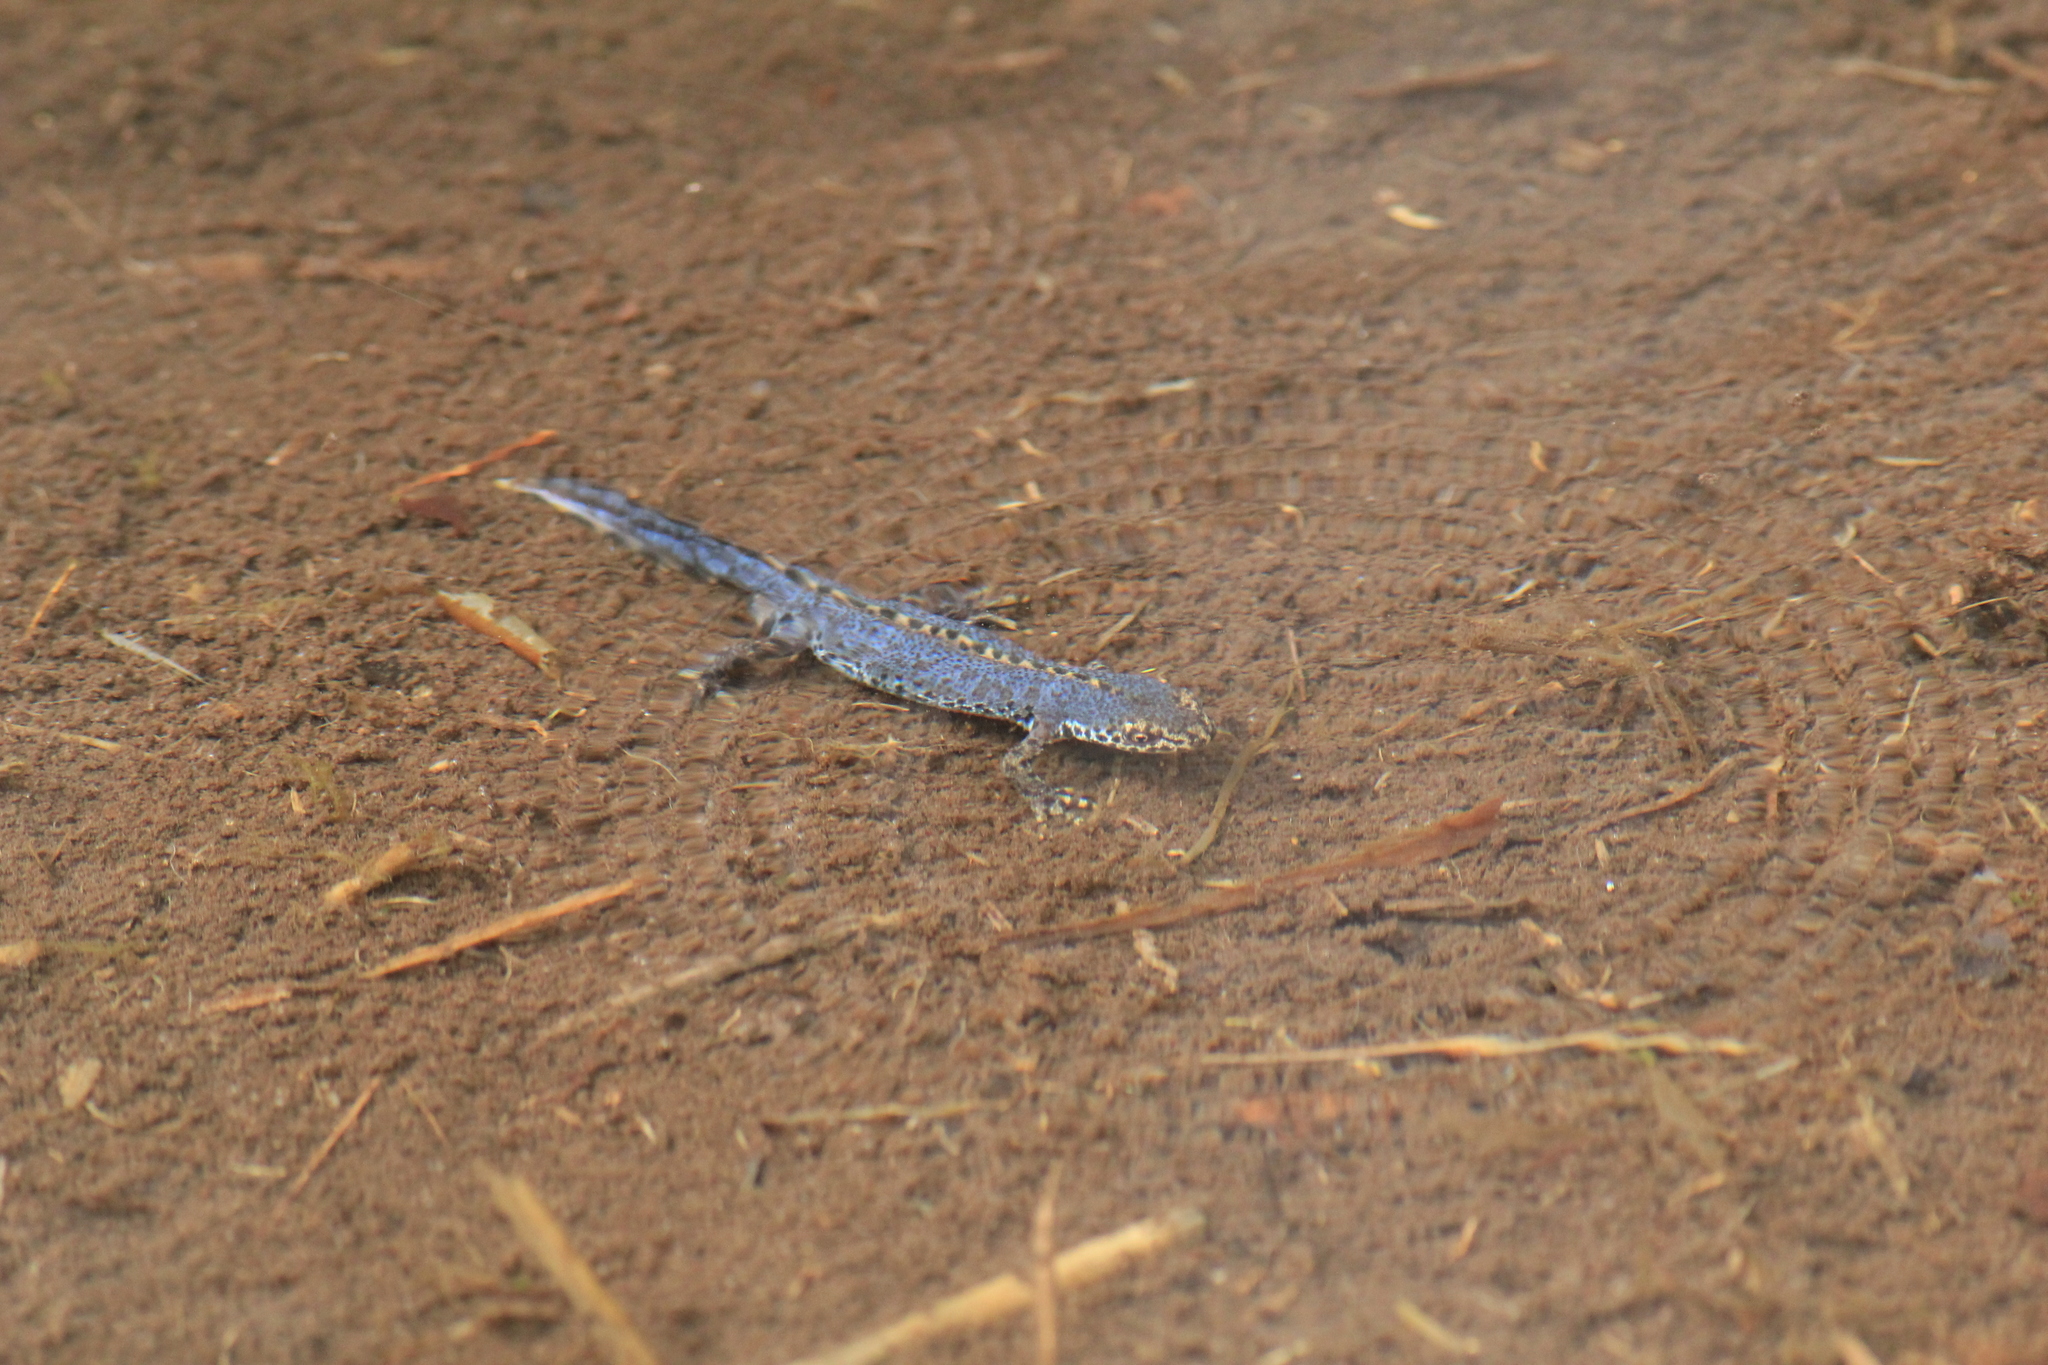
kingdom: Animalia
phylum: Chordata
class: Amphibia
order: Caudata
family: Salamandridae
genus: Ichthyosaura
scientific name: Ichthyosaura alpestris
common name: Alpine newt
